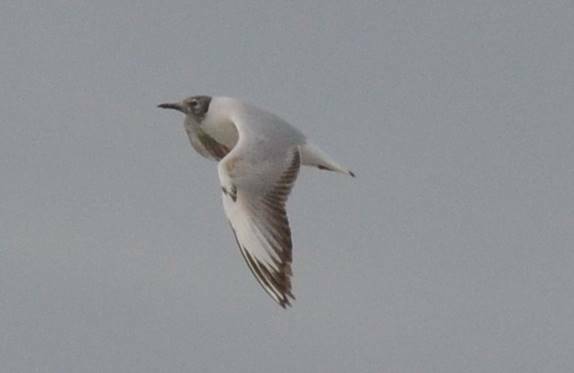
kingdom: Animalia
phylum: Chordata
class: Aves
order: Charadriiformes
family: Laridae
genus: Chroicocephalus
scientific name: Chroicocephalus ridibundus
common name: Black-headed gull
